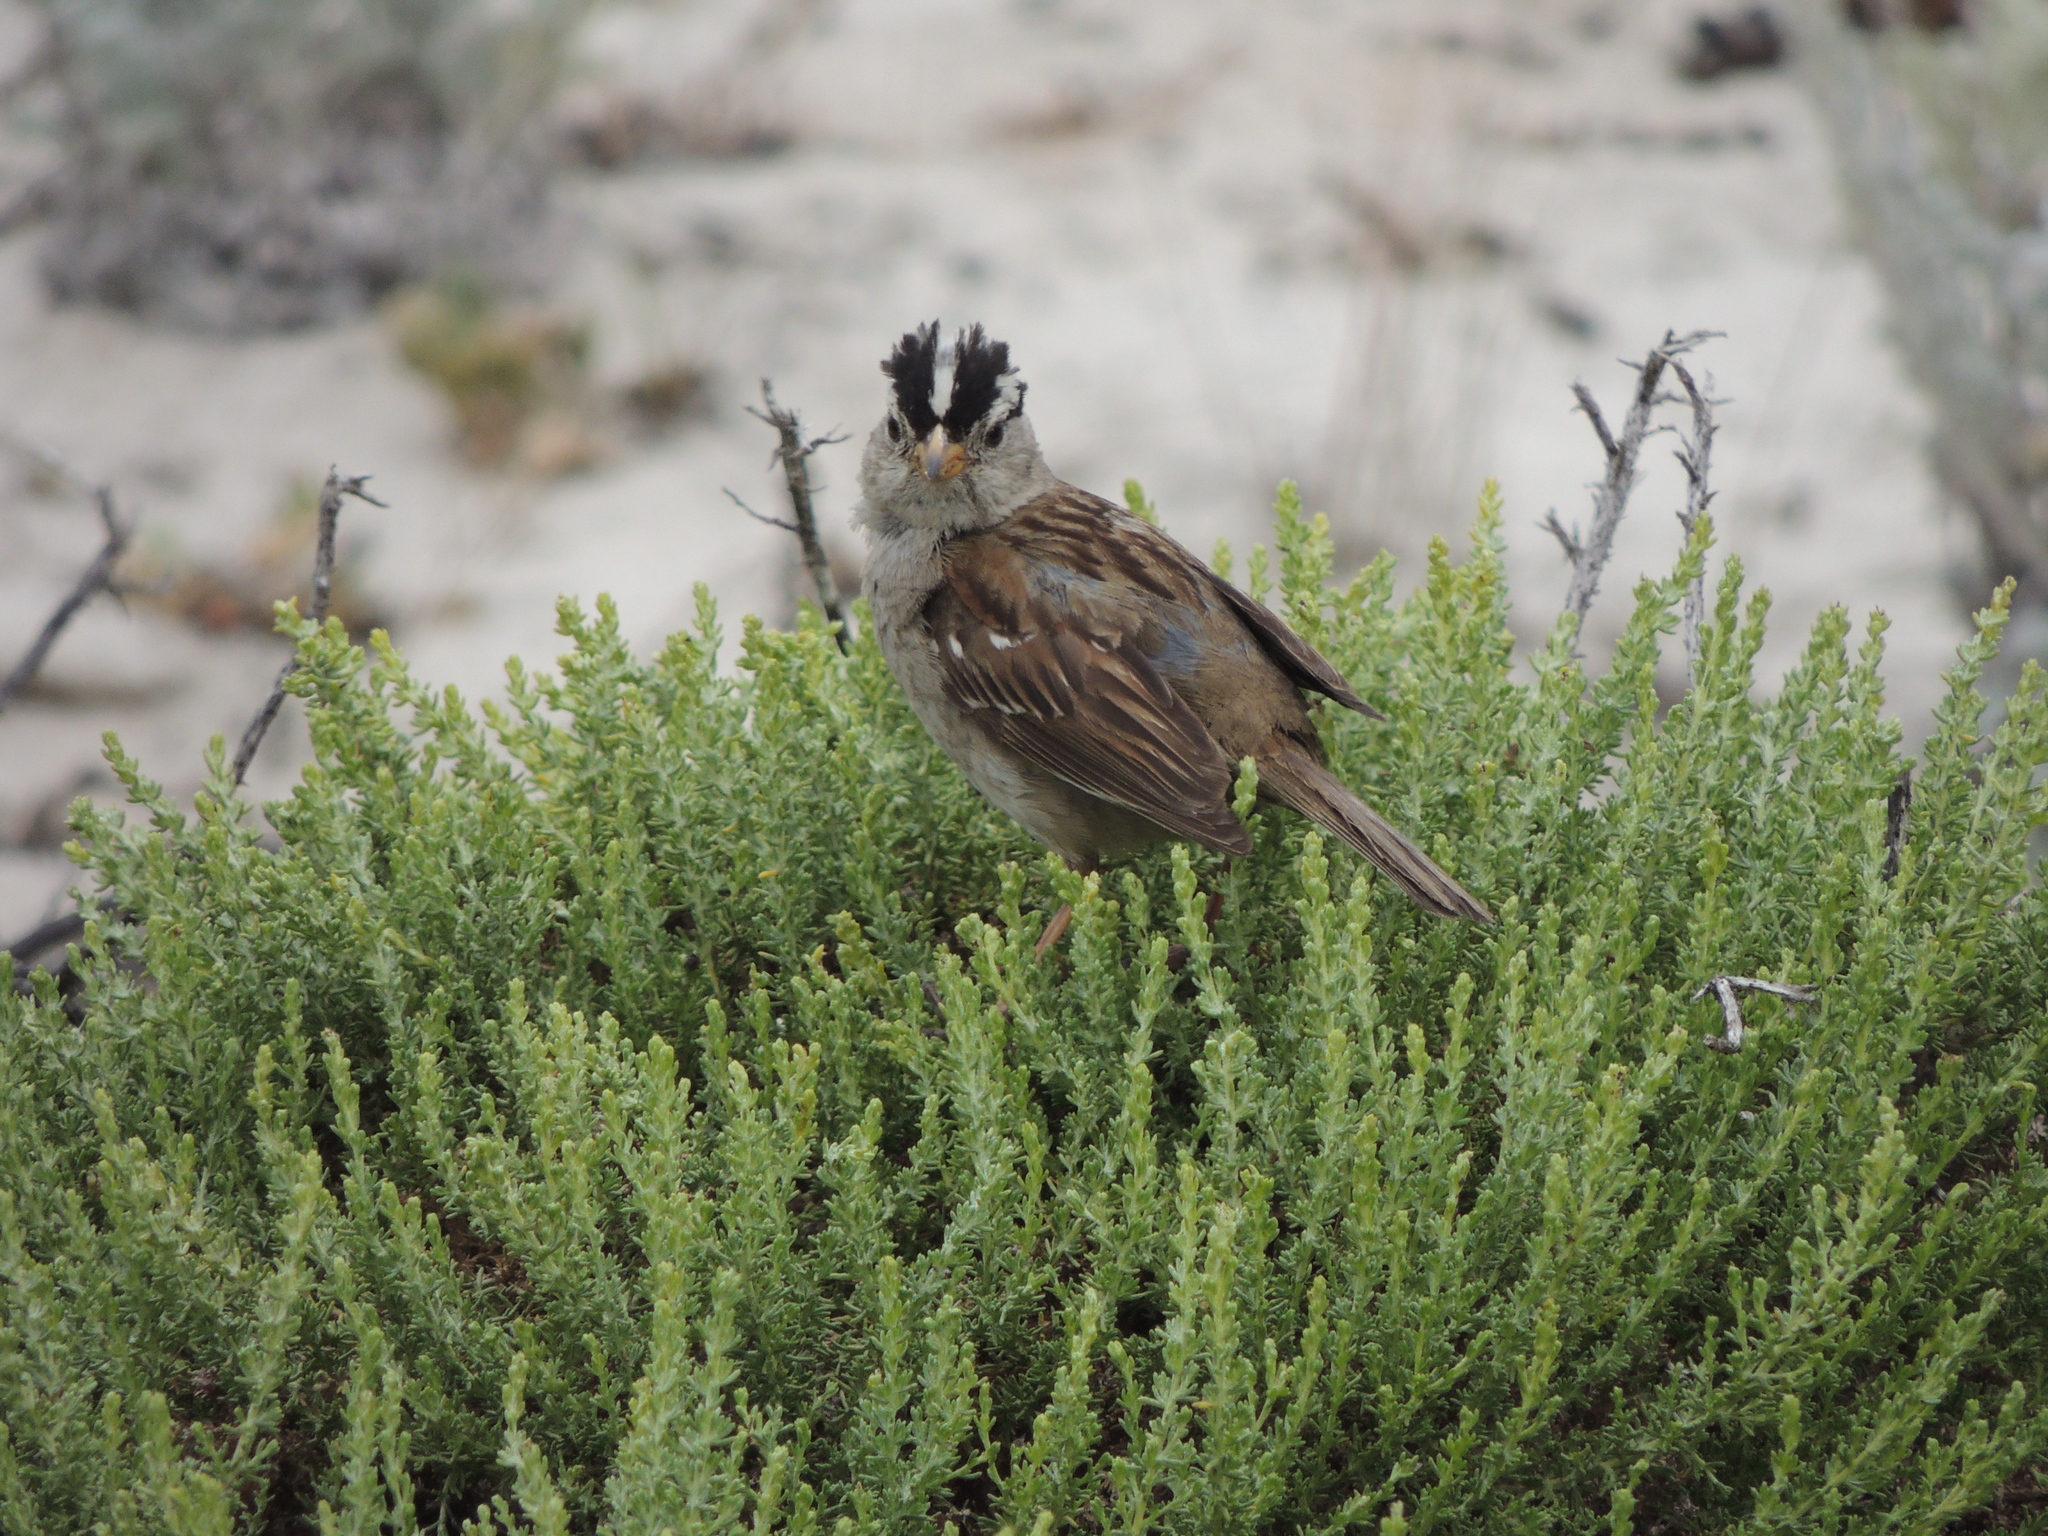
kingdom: Animalia
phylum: Chordata
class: Aves
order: Passeriformes
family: Passerellidae
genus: Zonotrichia
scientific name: Zonotrichia leucophrys
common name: White-crowned sparrow
